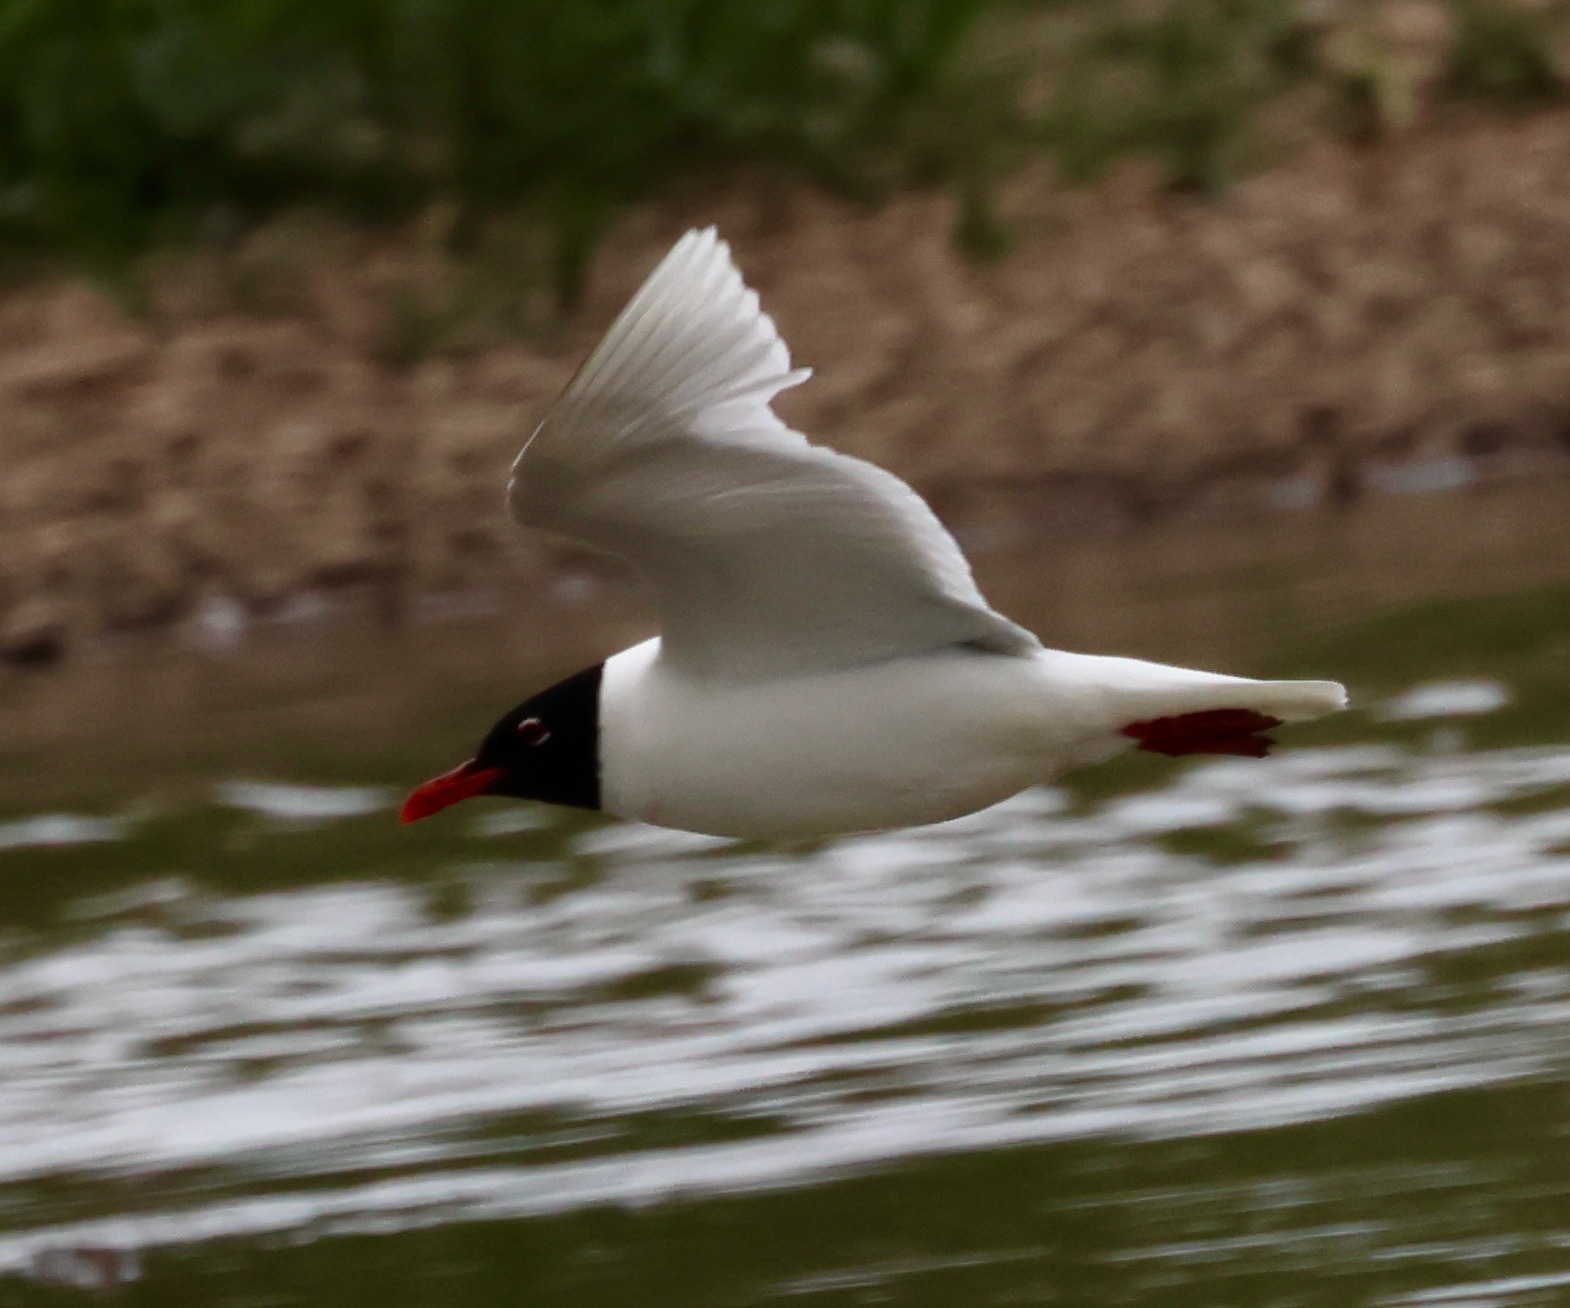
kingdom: Animalia
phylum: Chordata
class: Aves
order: Charadriiformes
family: Laridae
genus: Ichthyaetus
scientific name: Ichthyaetus melanocephalus
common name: Mediterranean gull
